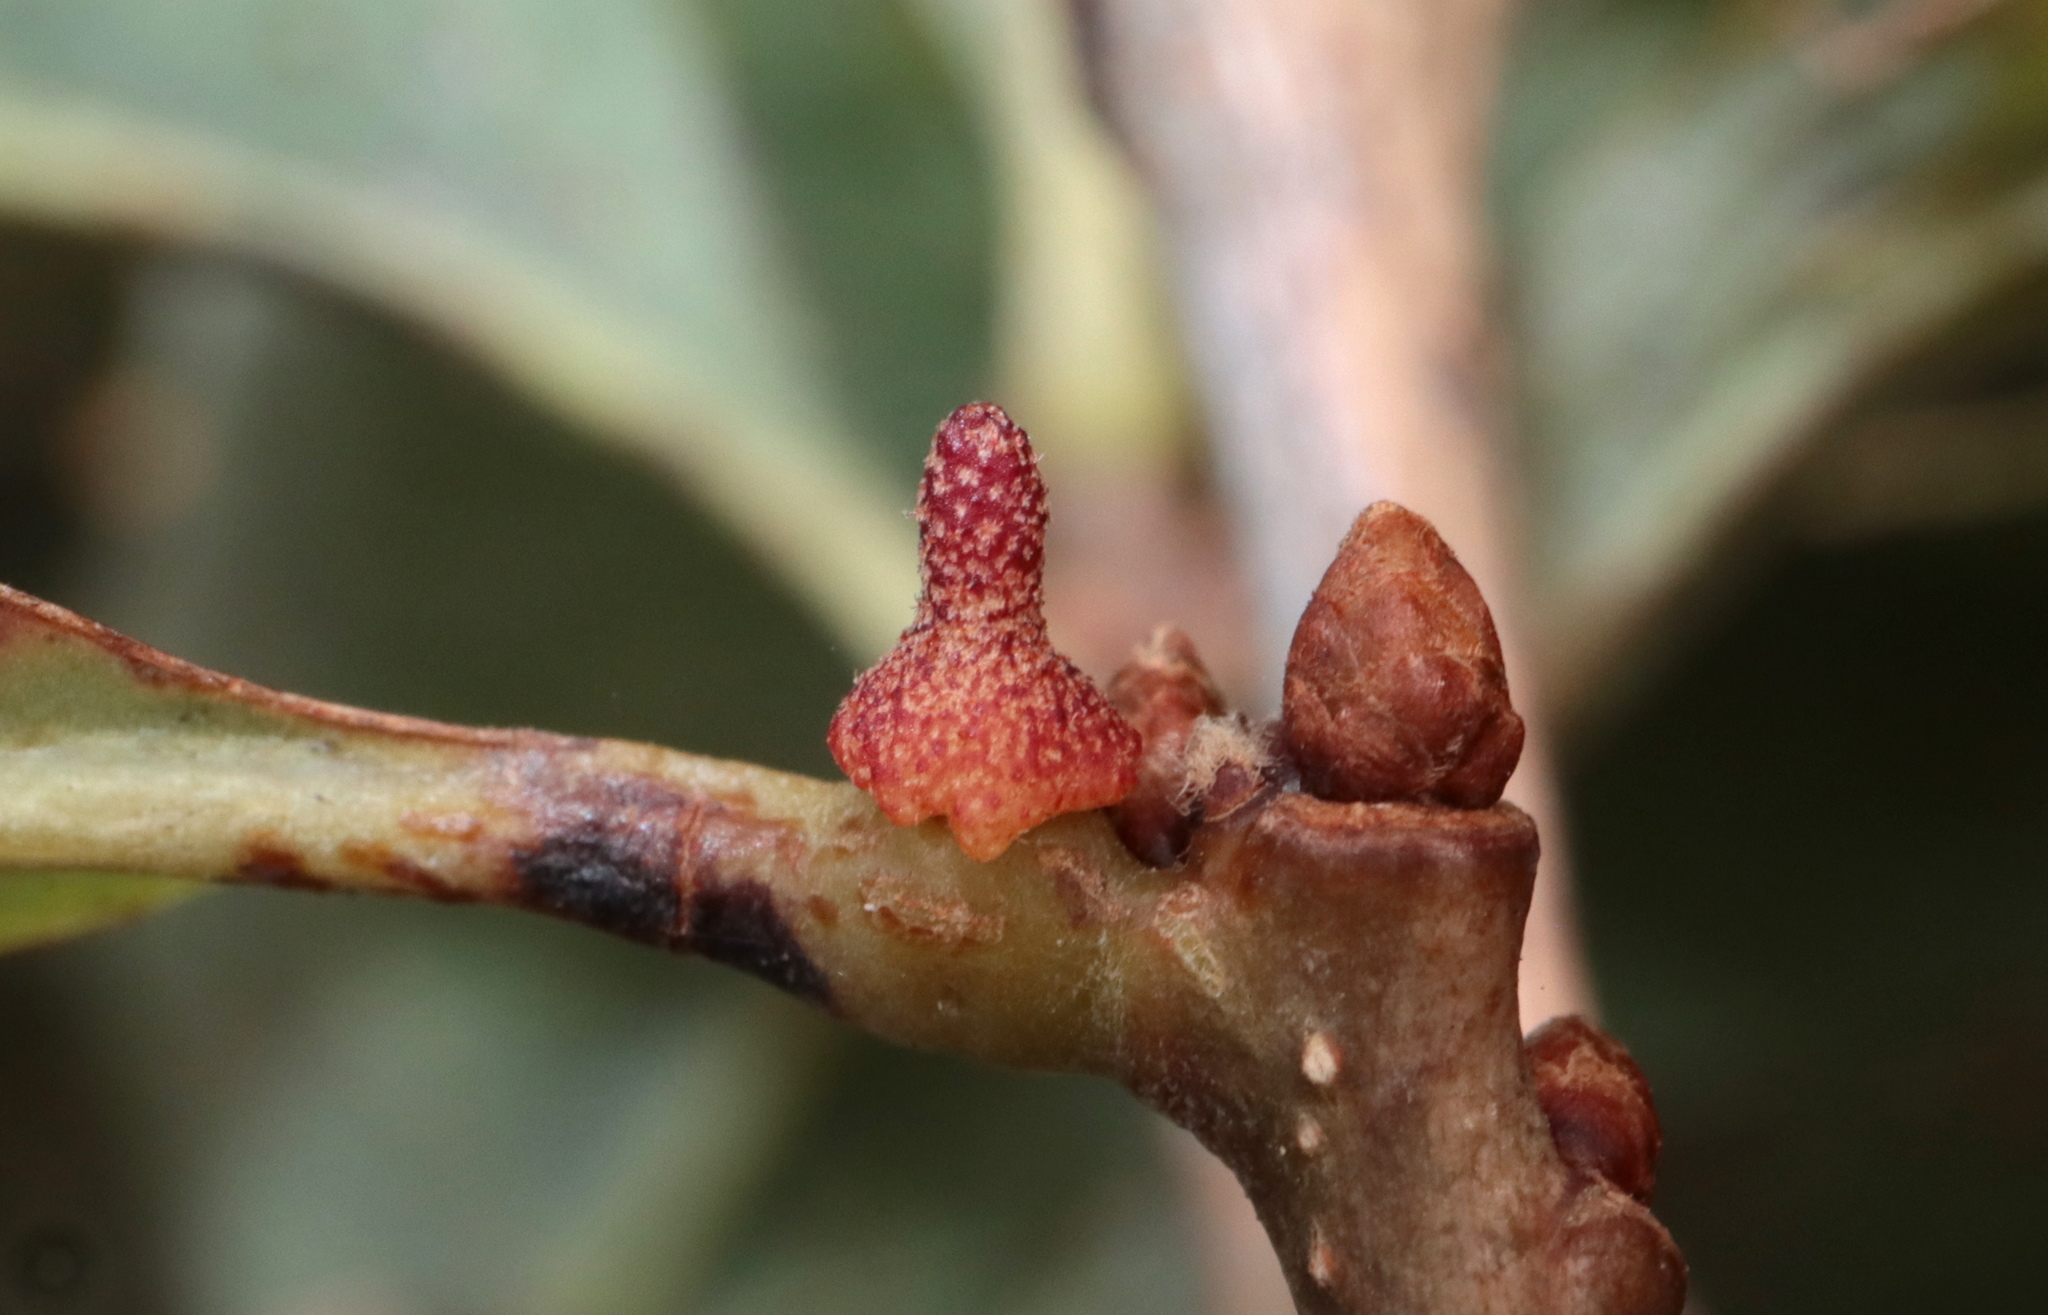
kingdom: Animalia
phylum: Arthropoda
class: Insecta
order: Hymenoptera
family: Cynipidae
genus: Zopheroteras
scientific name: Zopheroteras
